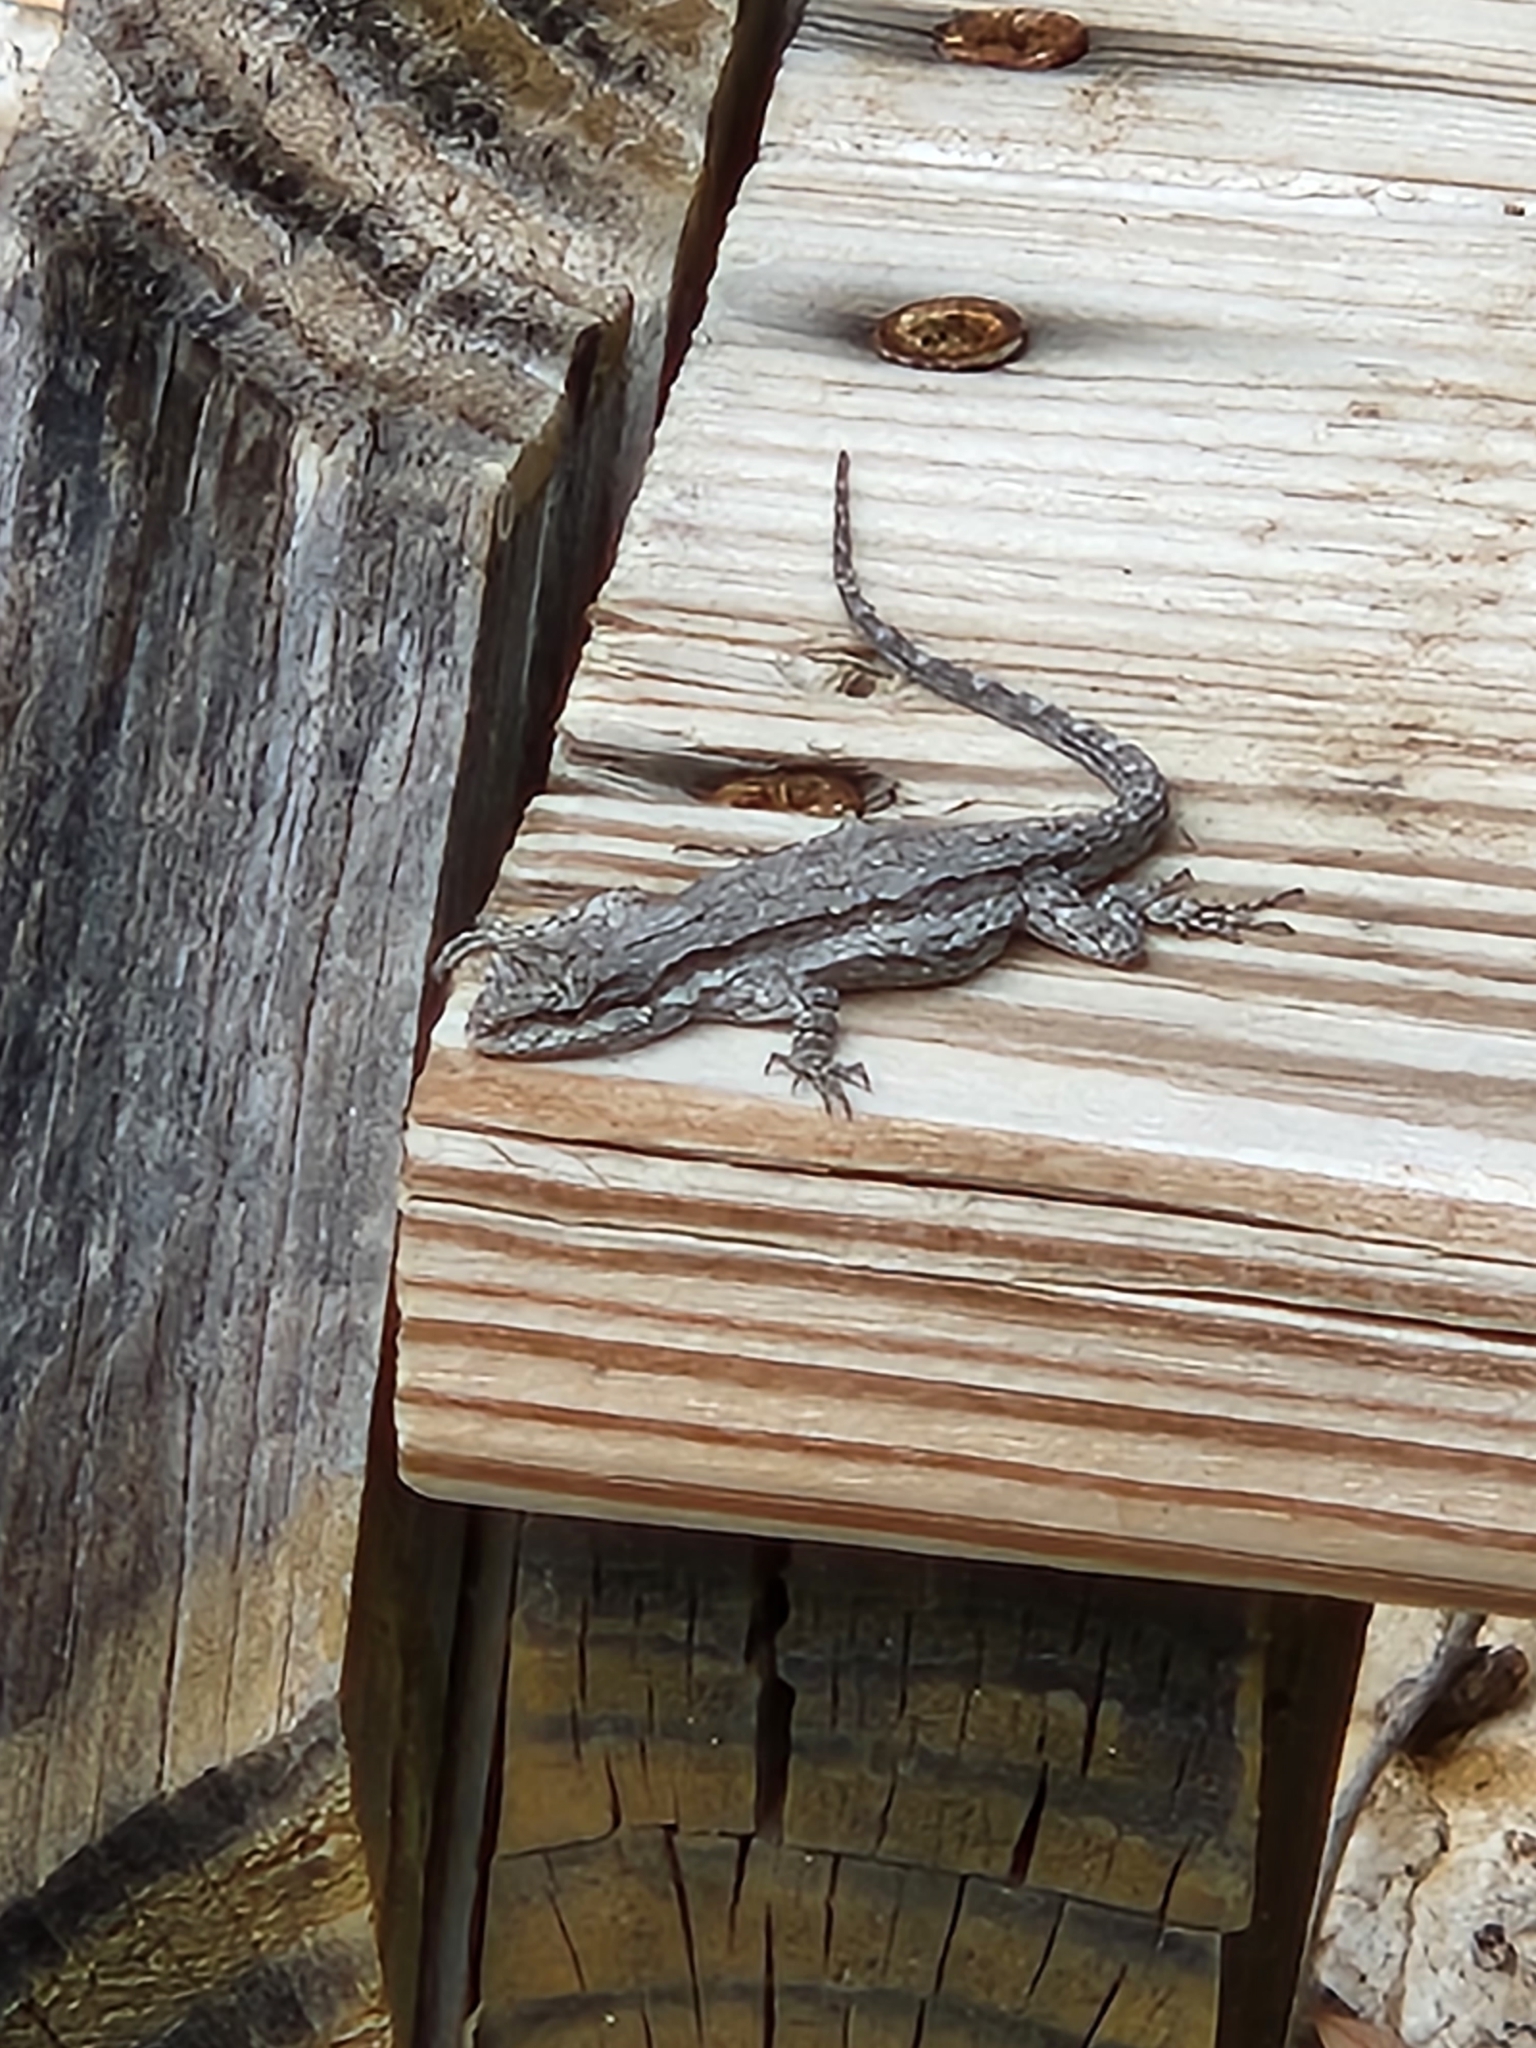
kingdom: Animalia
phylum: Chordata
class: Squamata
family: Phrynosomatidae
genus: Urosaurus
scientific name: Urosaurus ornatus
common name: Ornate tree lizard
